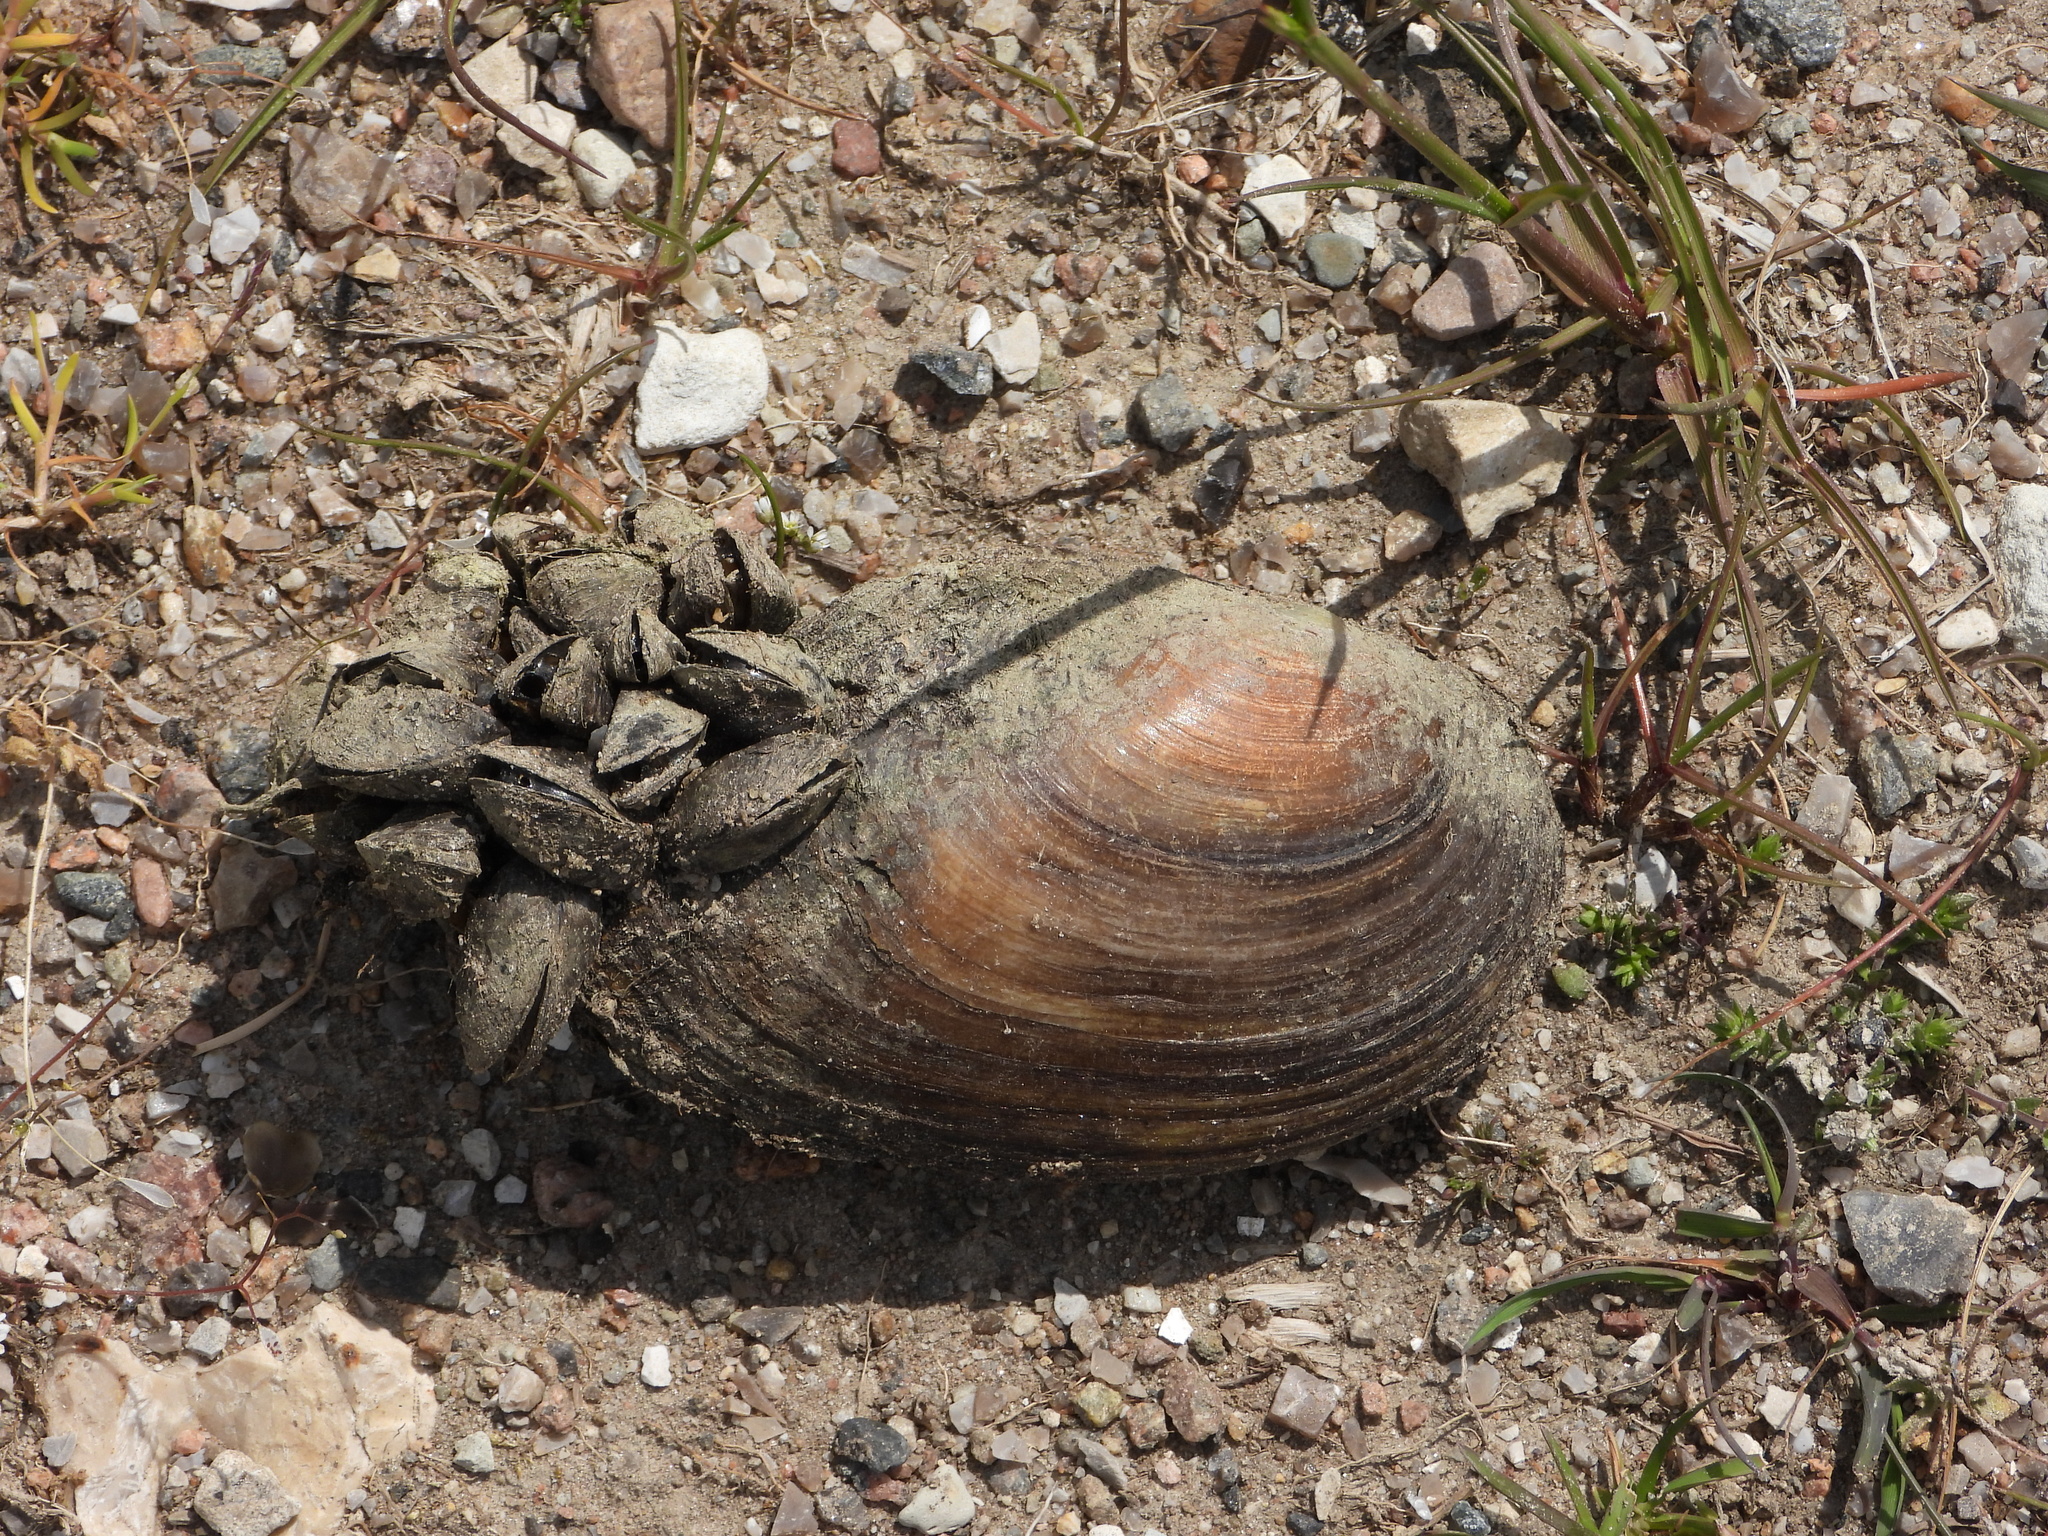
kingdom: Animalia
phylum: Mollusca
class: Bivalvia
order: Unionida
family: Unionidae
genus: Anodonta
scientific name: Anodonta anatina
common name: Duck mussel
